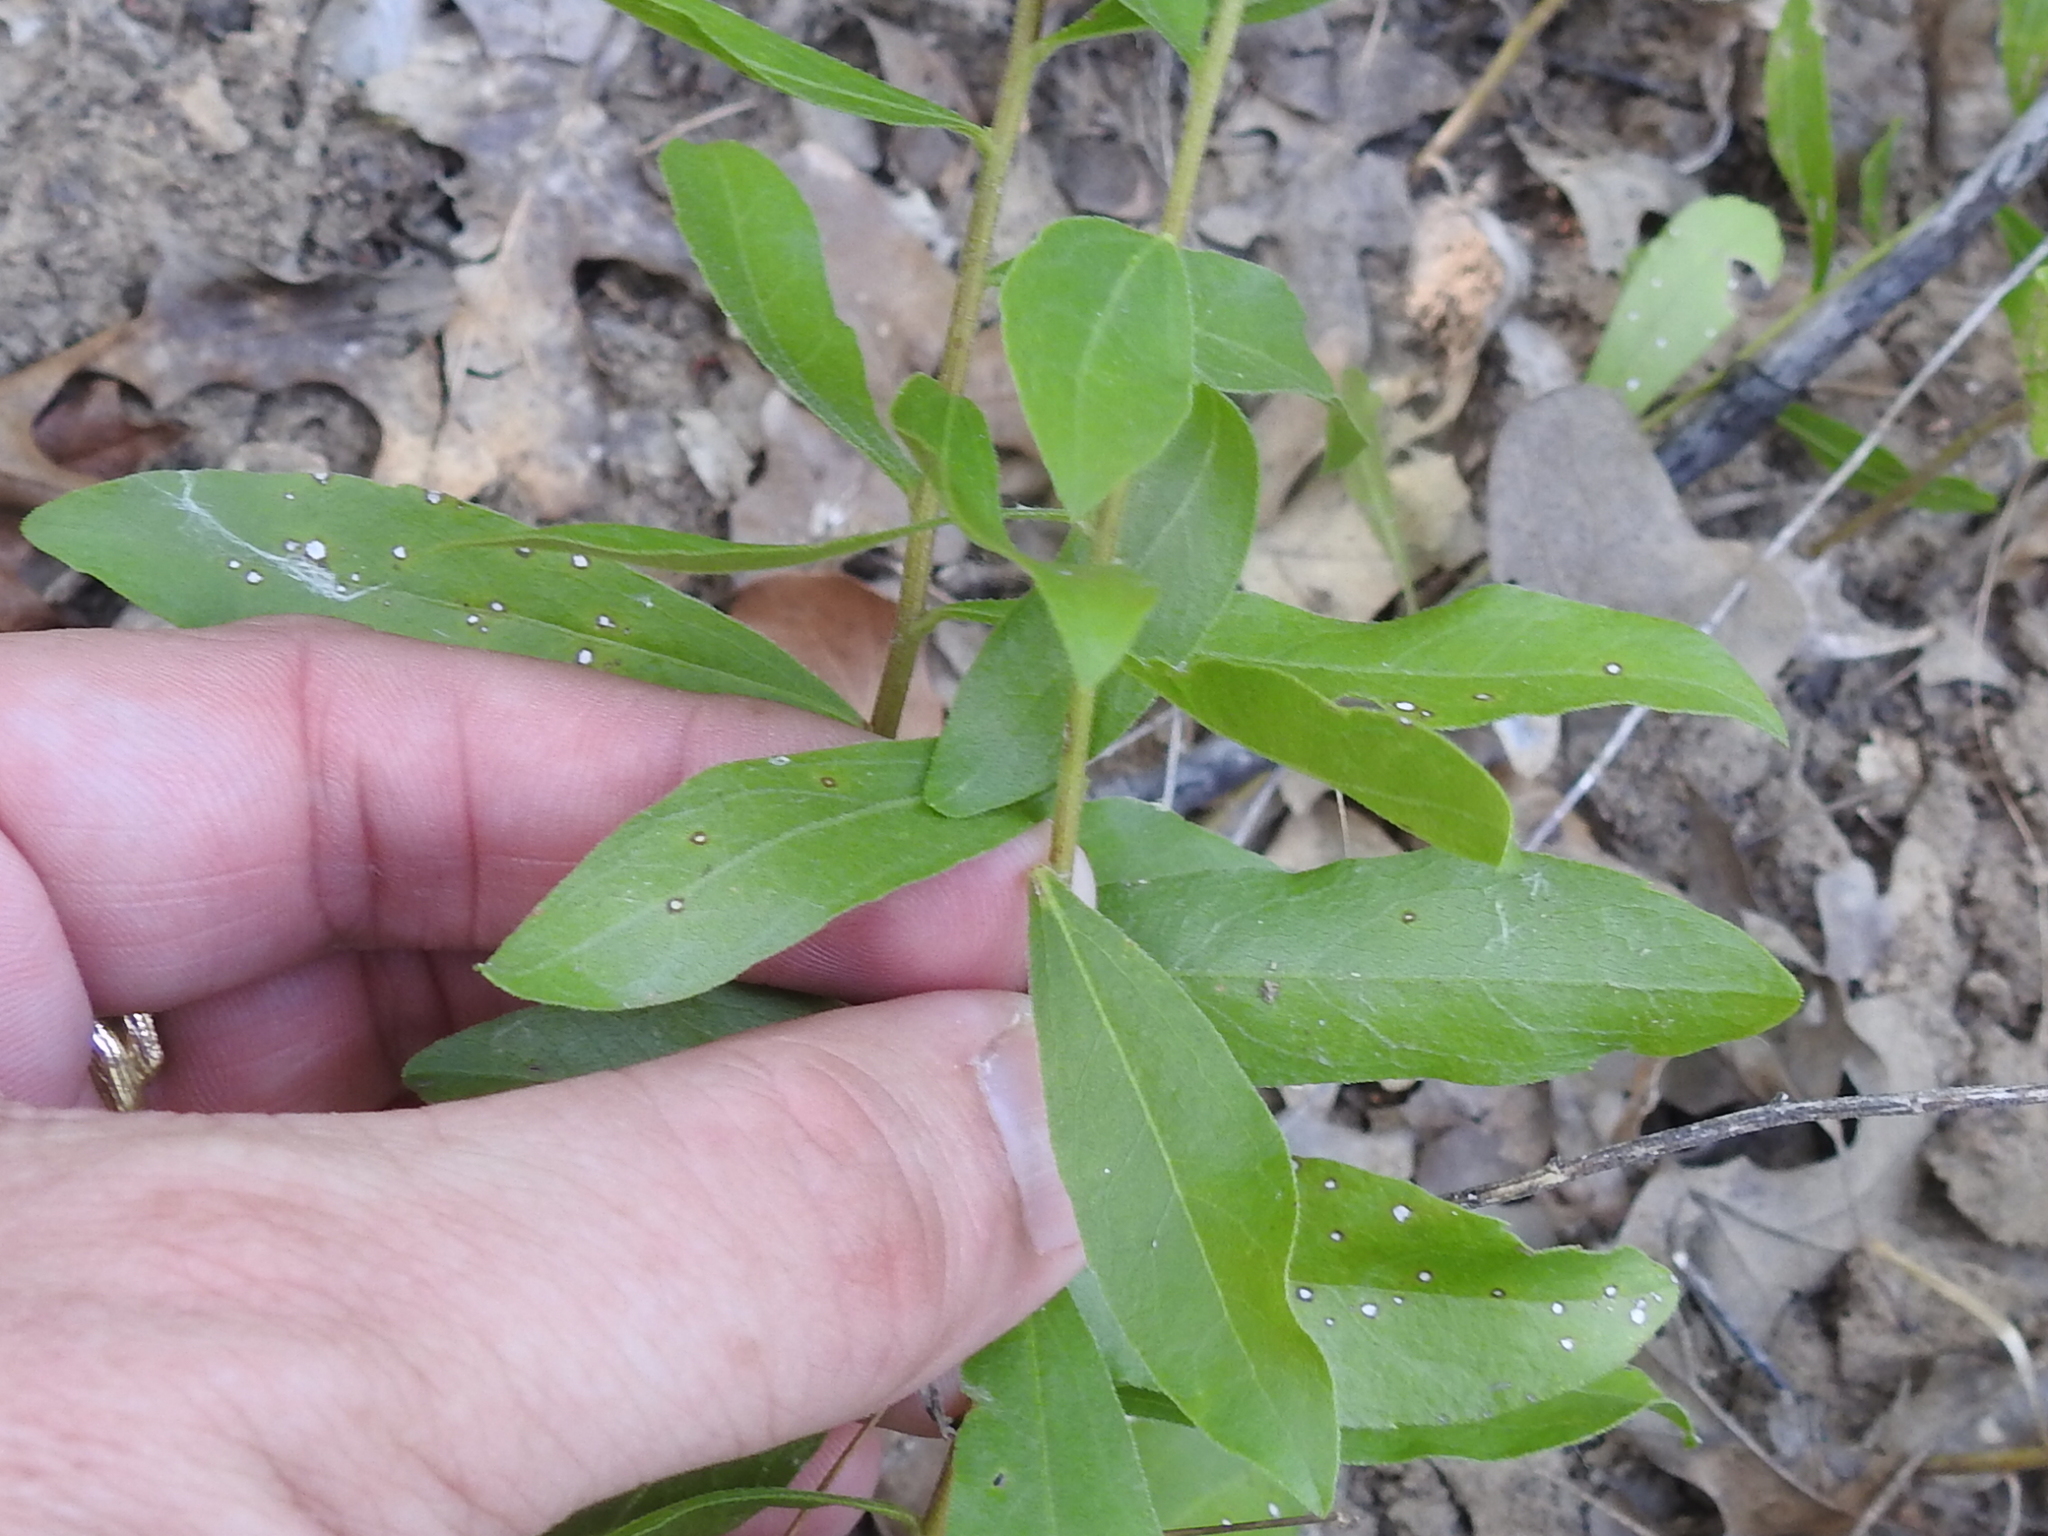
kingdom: Plantae
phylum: Tracheophyta
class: Magnoliopsida
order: Asterales
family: Asteraceae
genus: Solidago
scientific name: Solidago radula
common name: Western rough goldenrod
